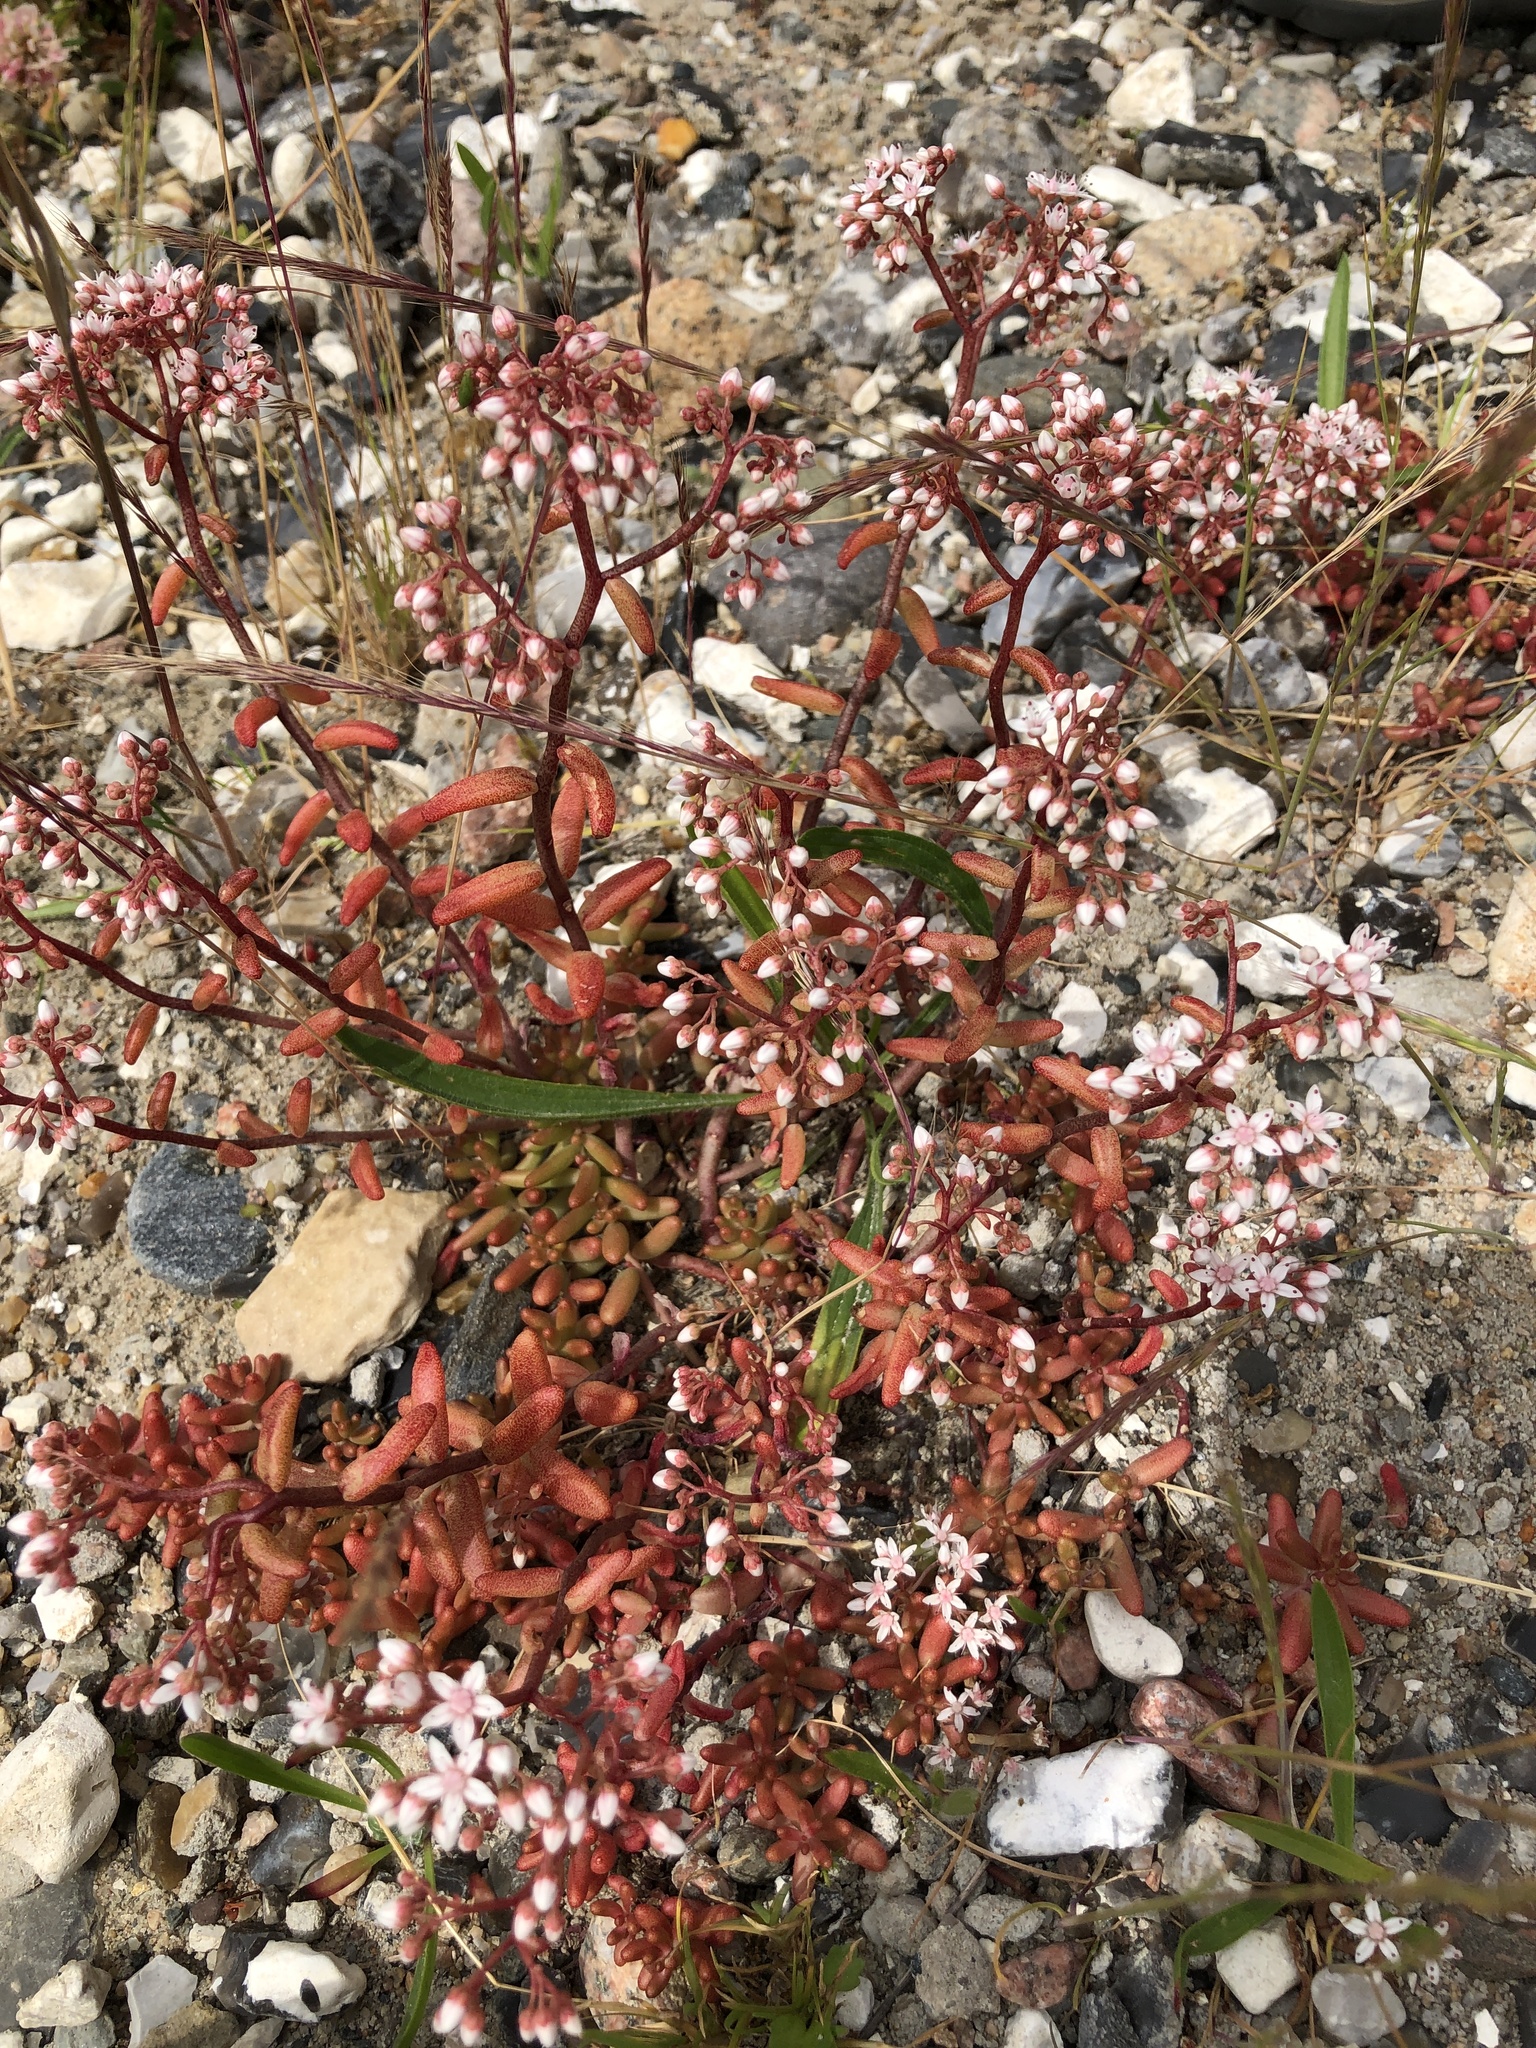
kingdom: Plantae
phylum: Tracheophyta
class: Magnoliopsida
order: Saxifragales
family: Crassulaceae
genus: Sedum
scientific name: Sedum album
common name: White stonecrop
